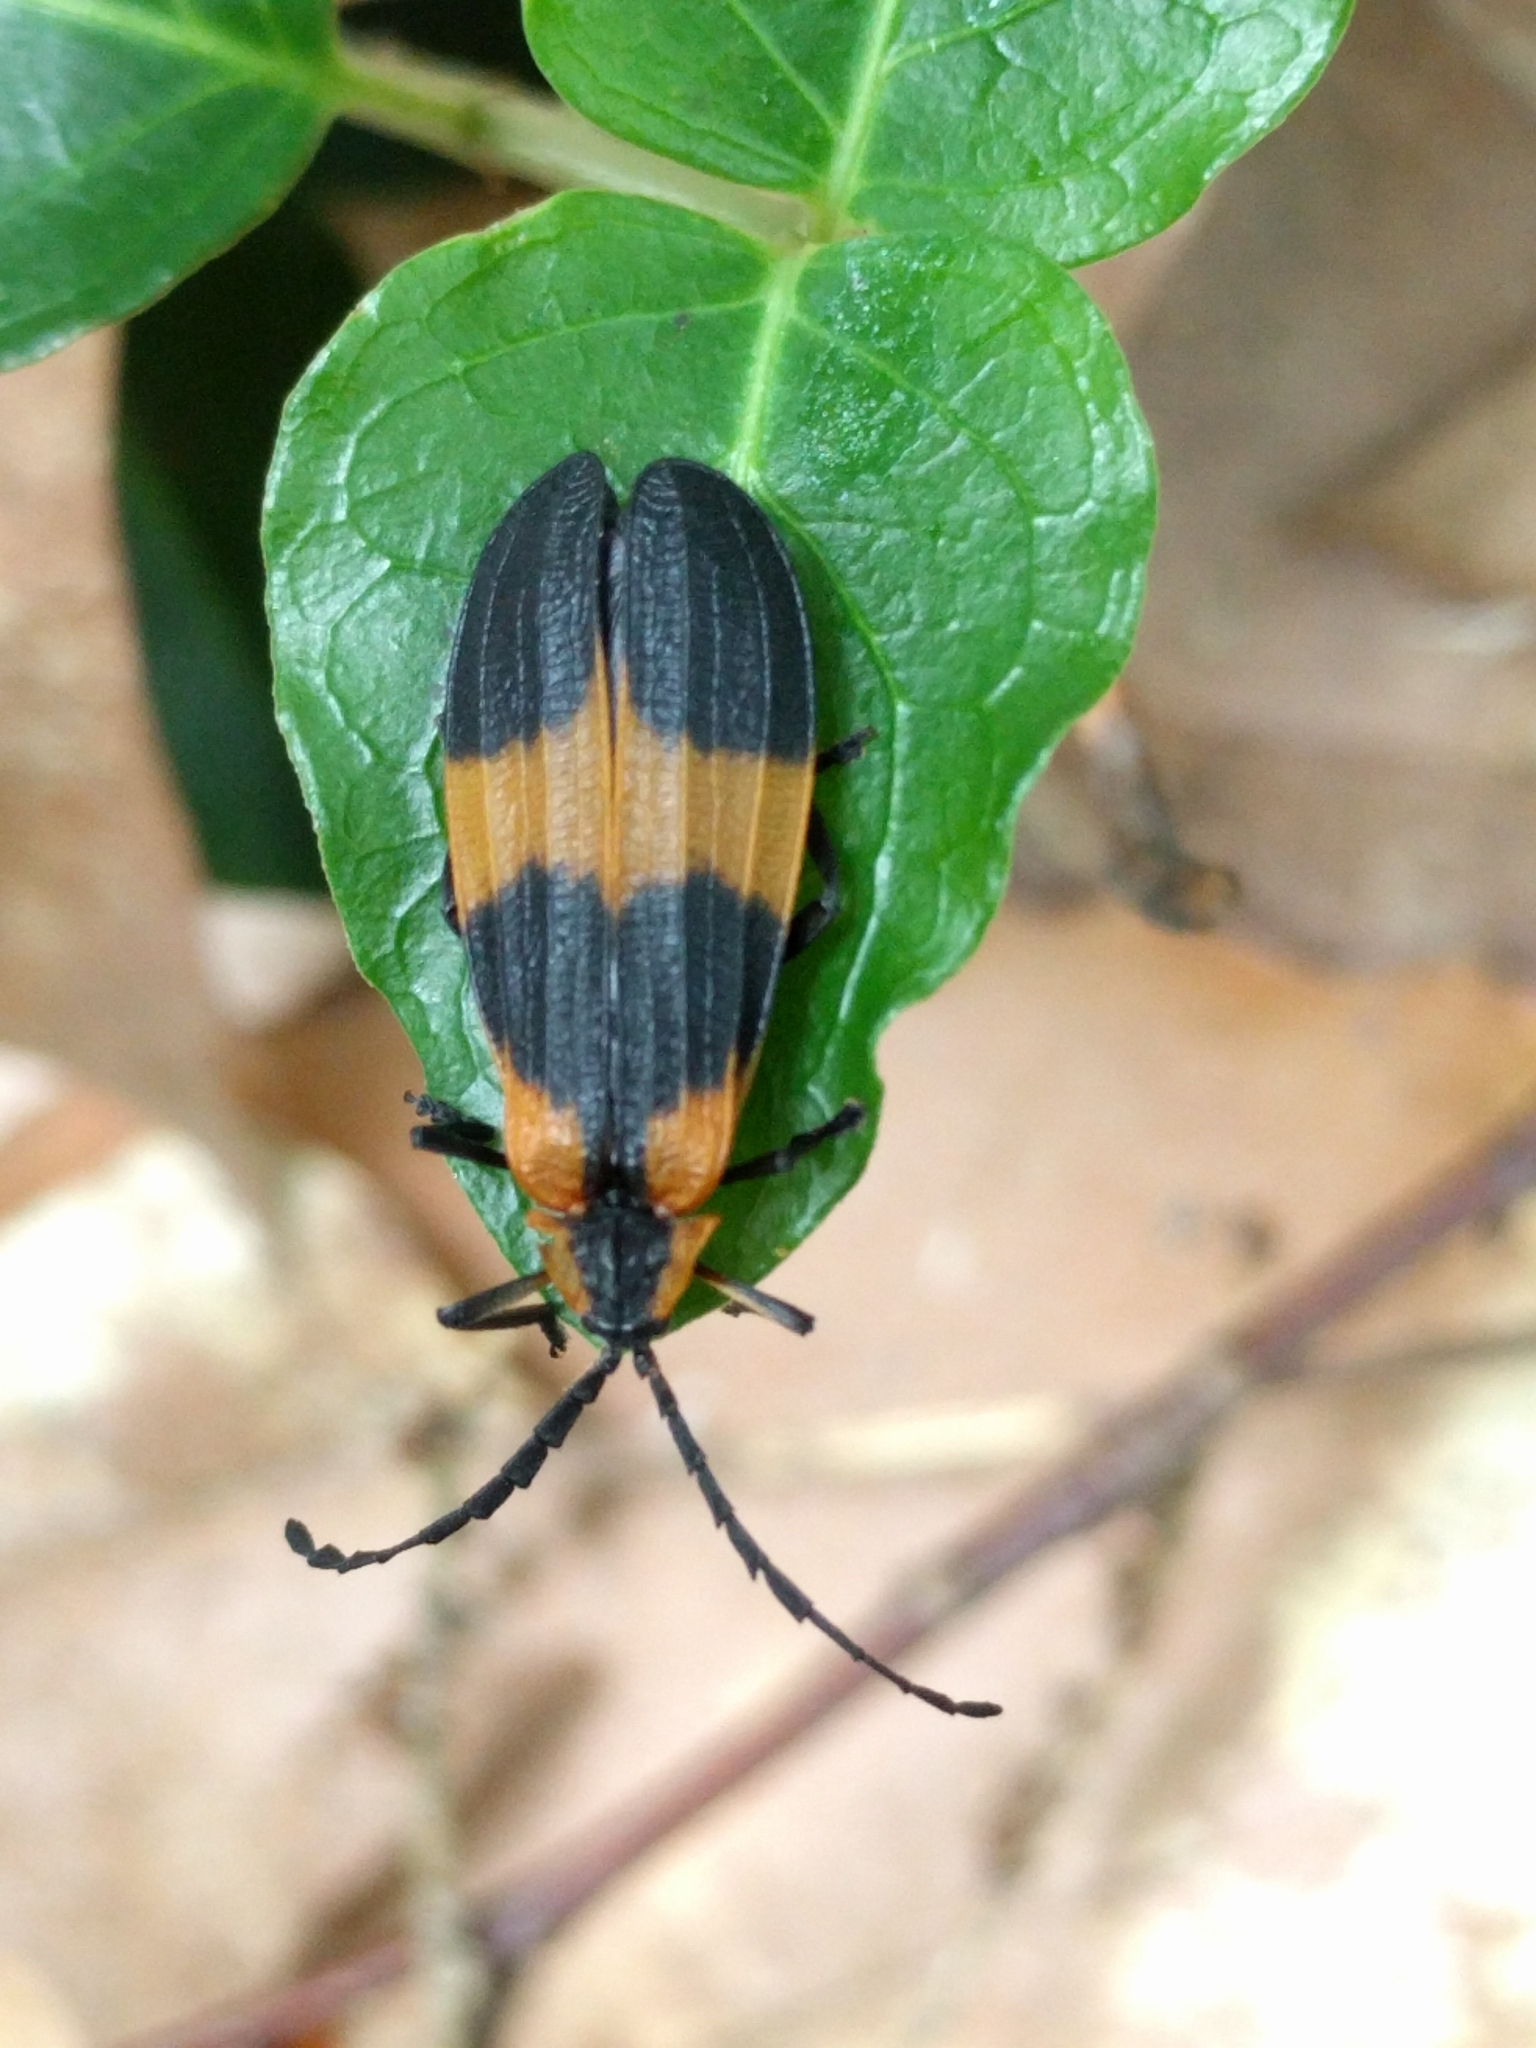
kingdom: Animalia
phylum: Arthropoda
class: Insecta
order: Coleoptera
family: Lycidae
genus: Calopteron
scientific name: Calopteron reticulatum
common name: Banded net-winged beetle
